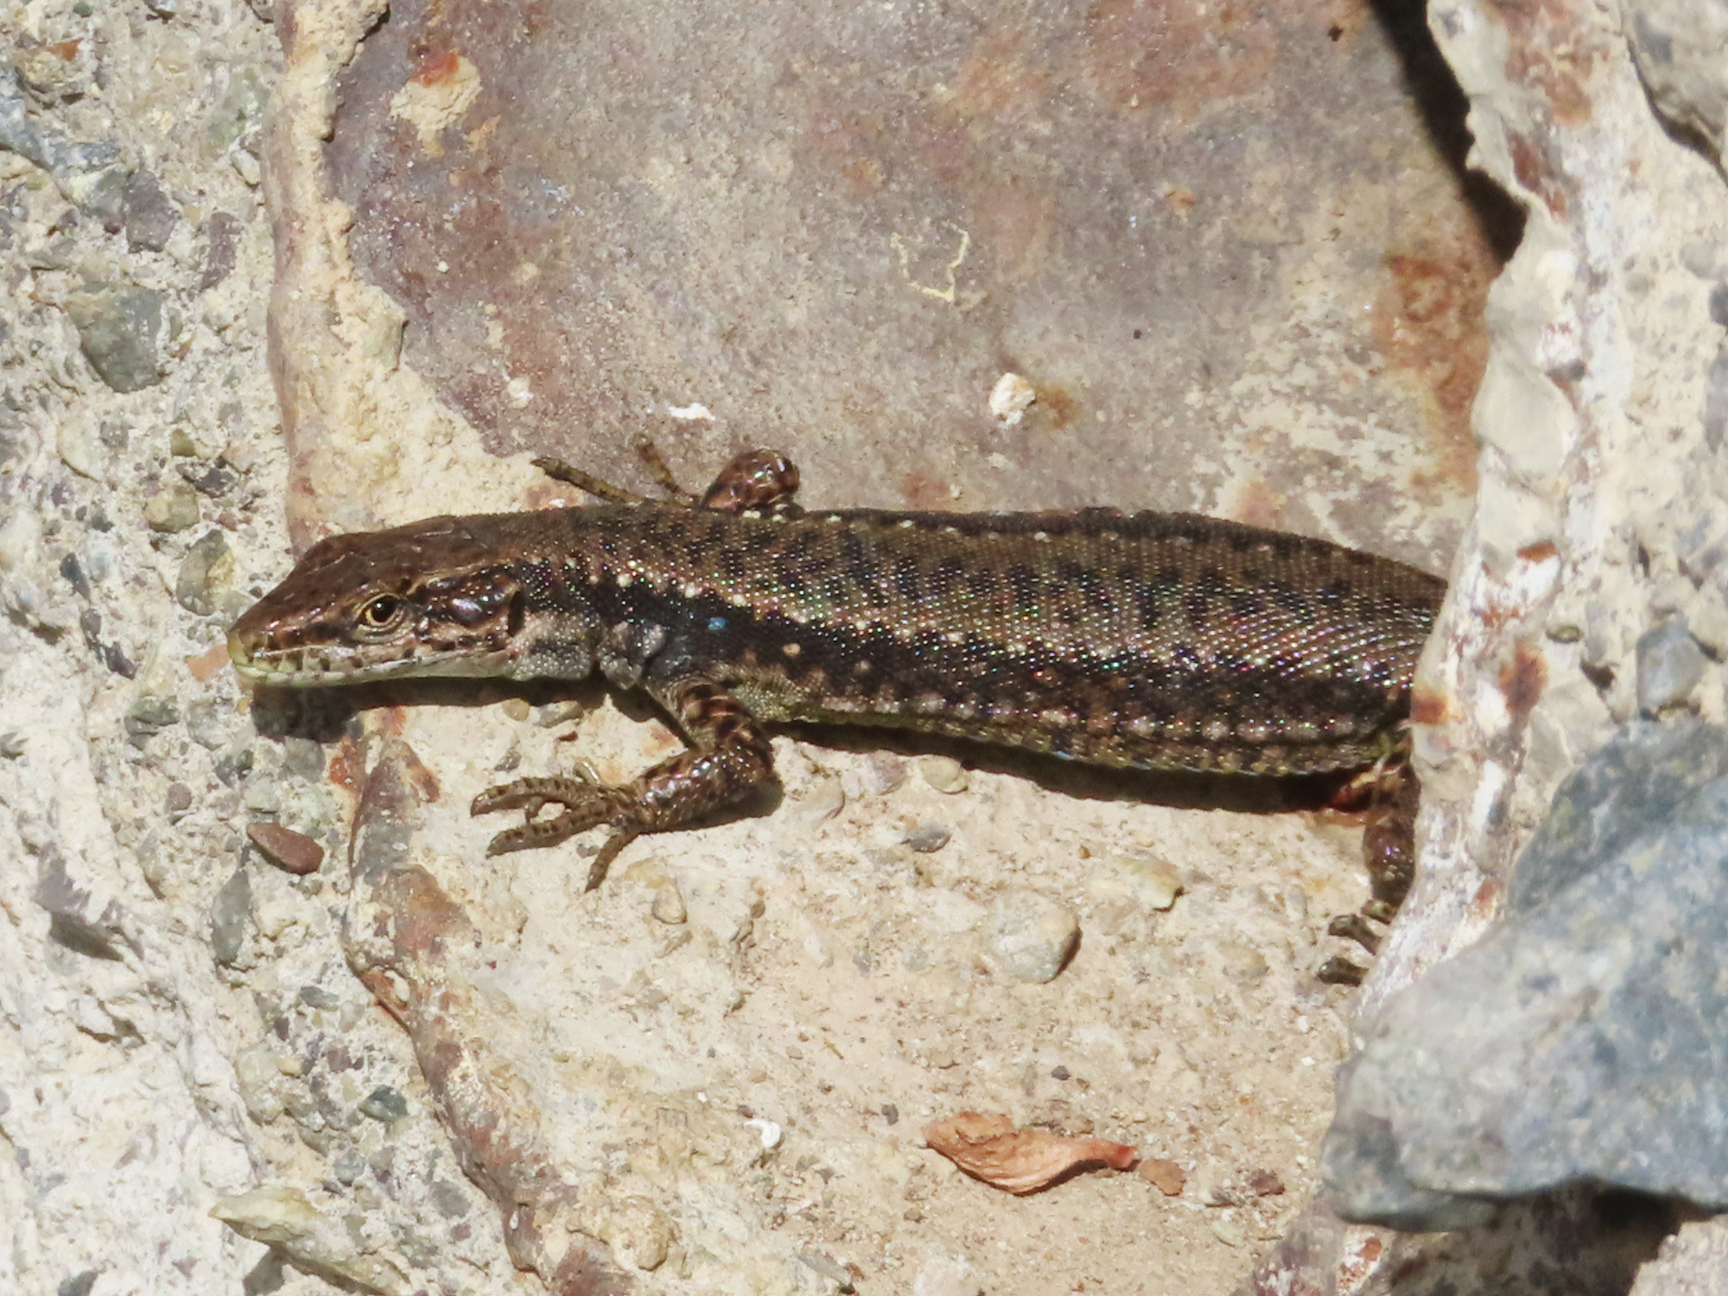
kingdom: Animalia
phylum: Chordata
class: Squamata
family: Lacertidae
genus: Darevskia
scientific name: Darevskia armeniaca
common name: Armenian lizard
